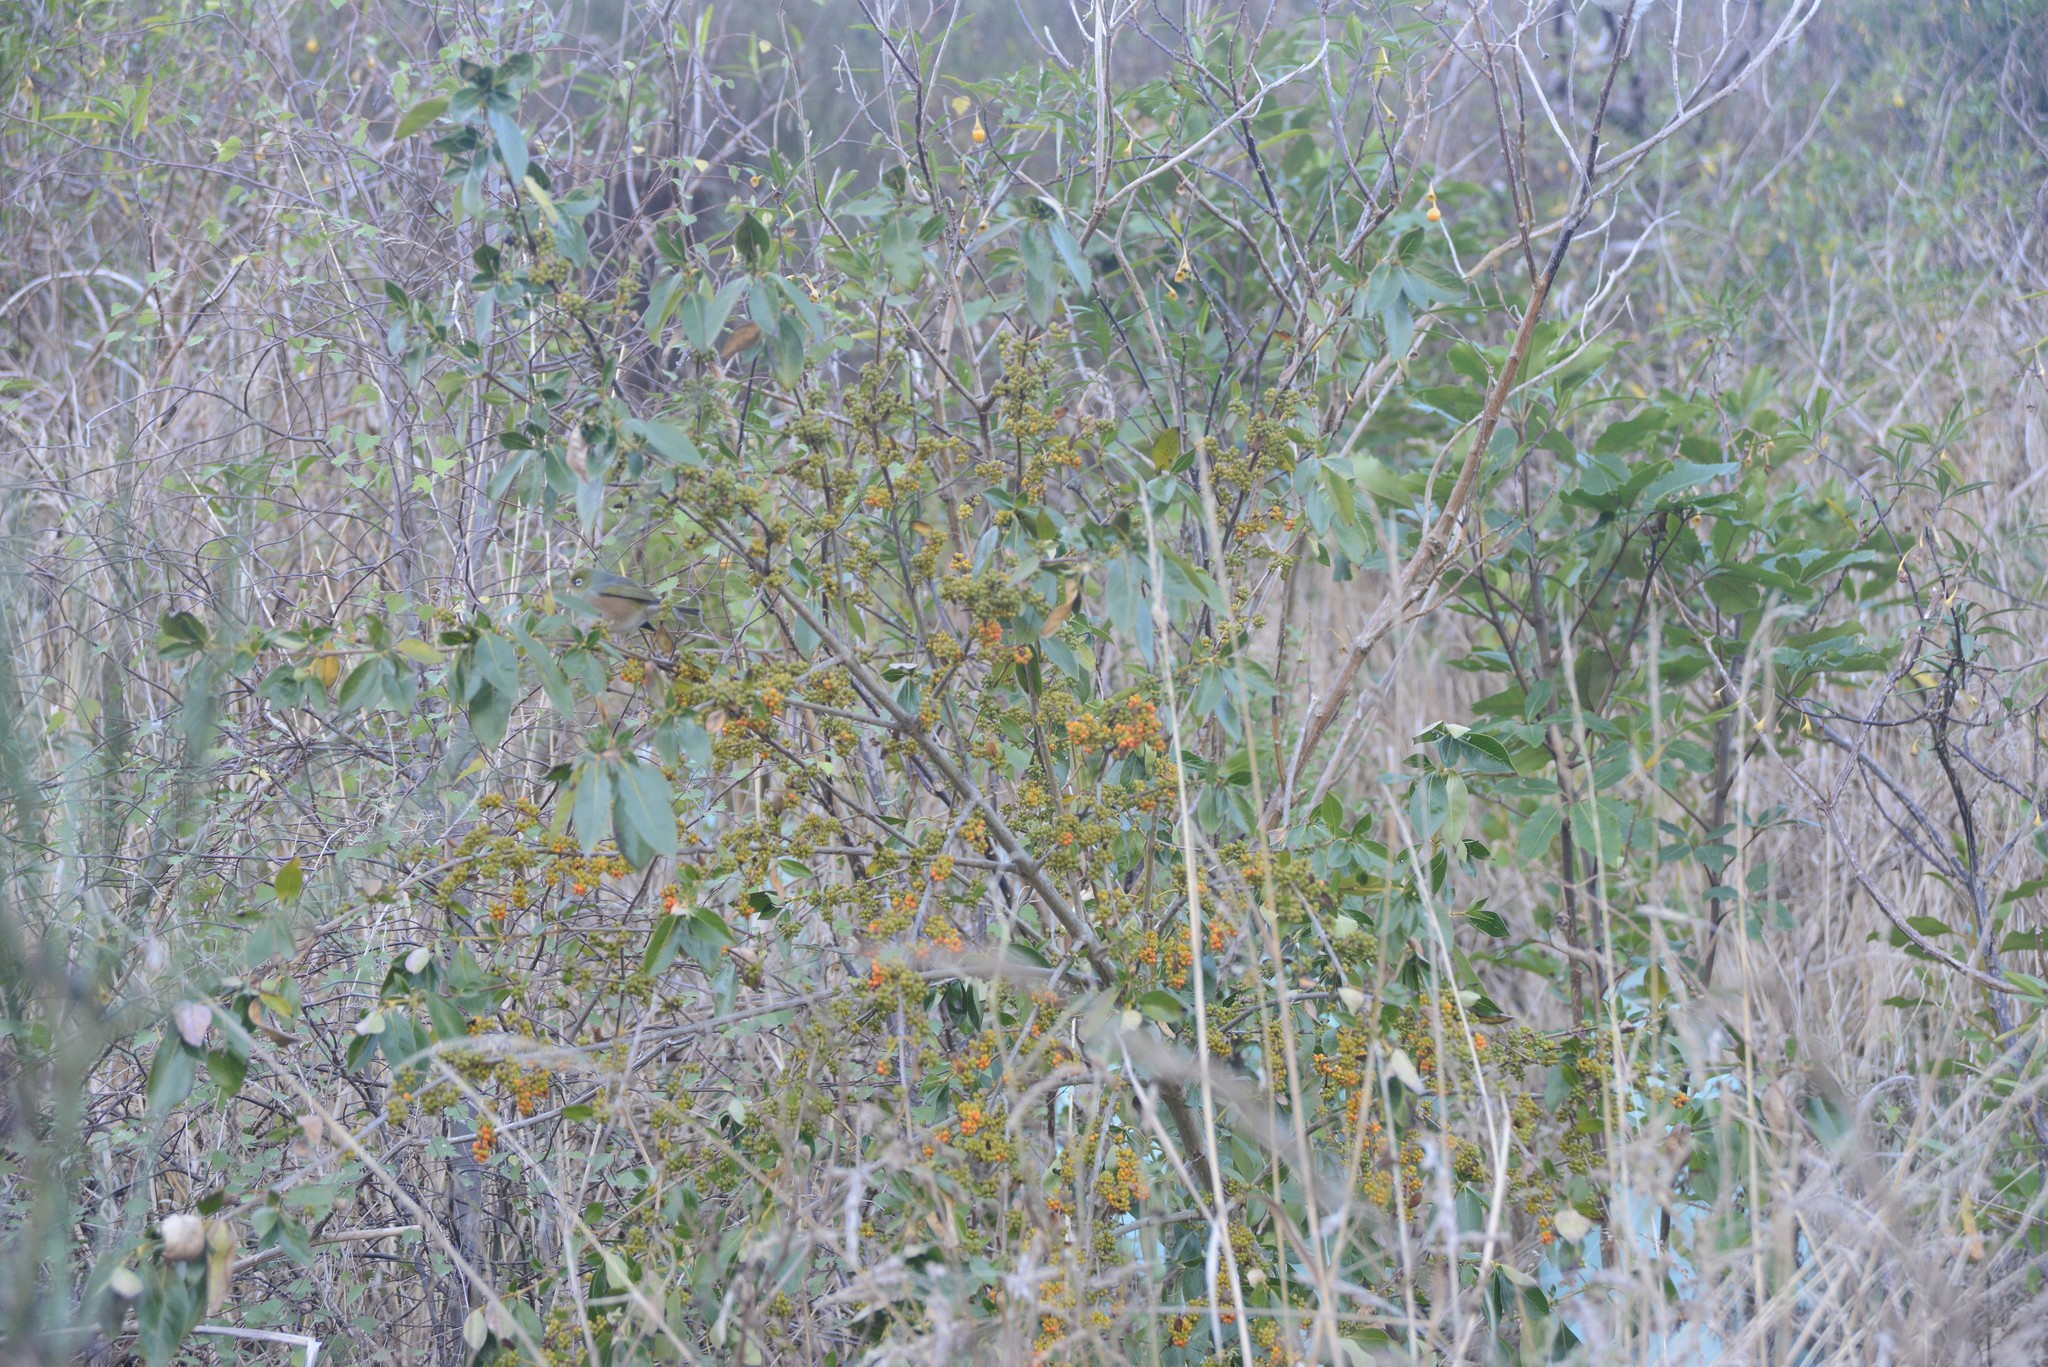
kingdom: Plantae
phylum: Tracheophyta
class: Magnoliopsida
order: Gentianales
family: Rubiaceae
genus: Coprosma
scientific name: Coprosma robusta
